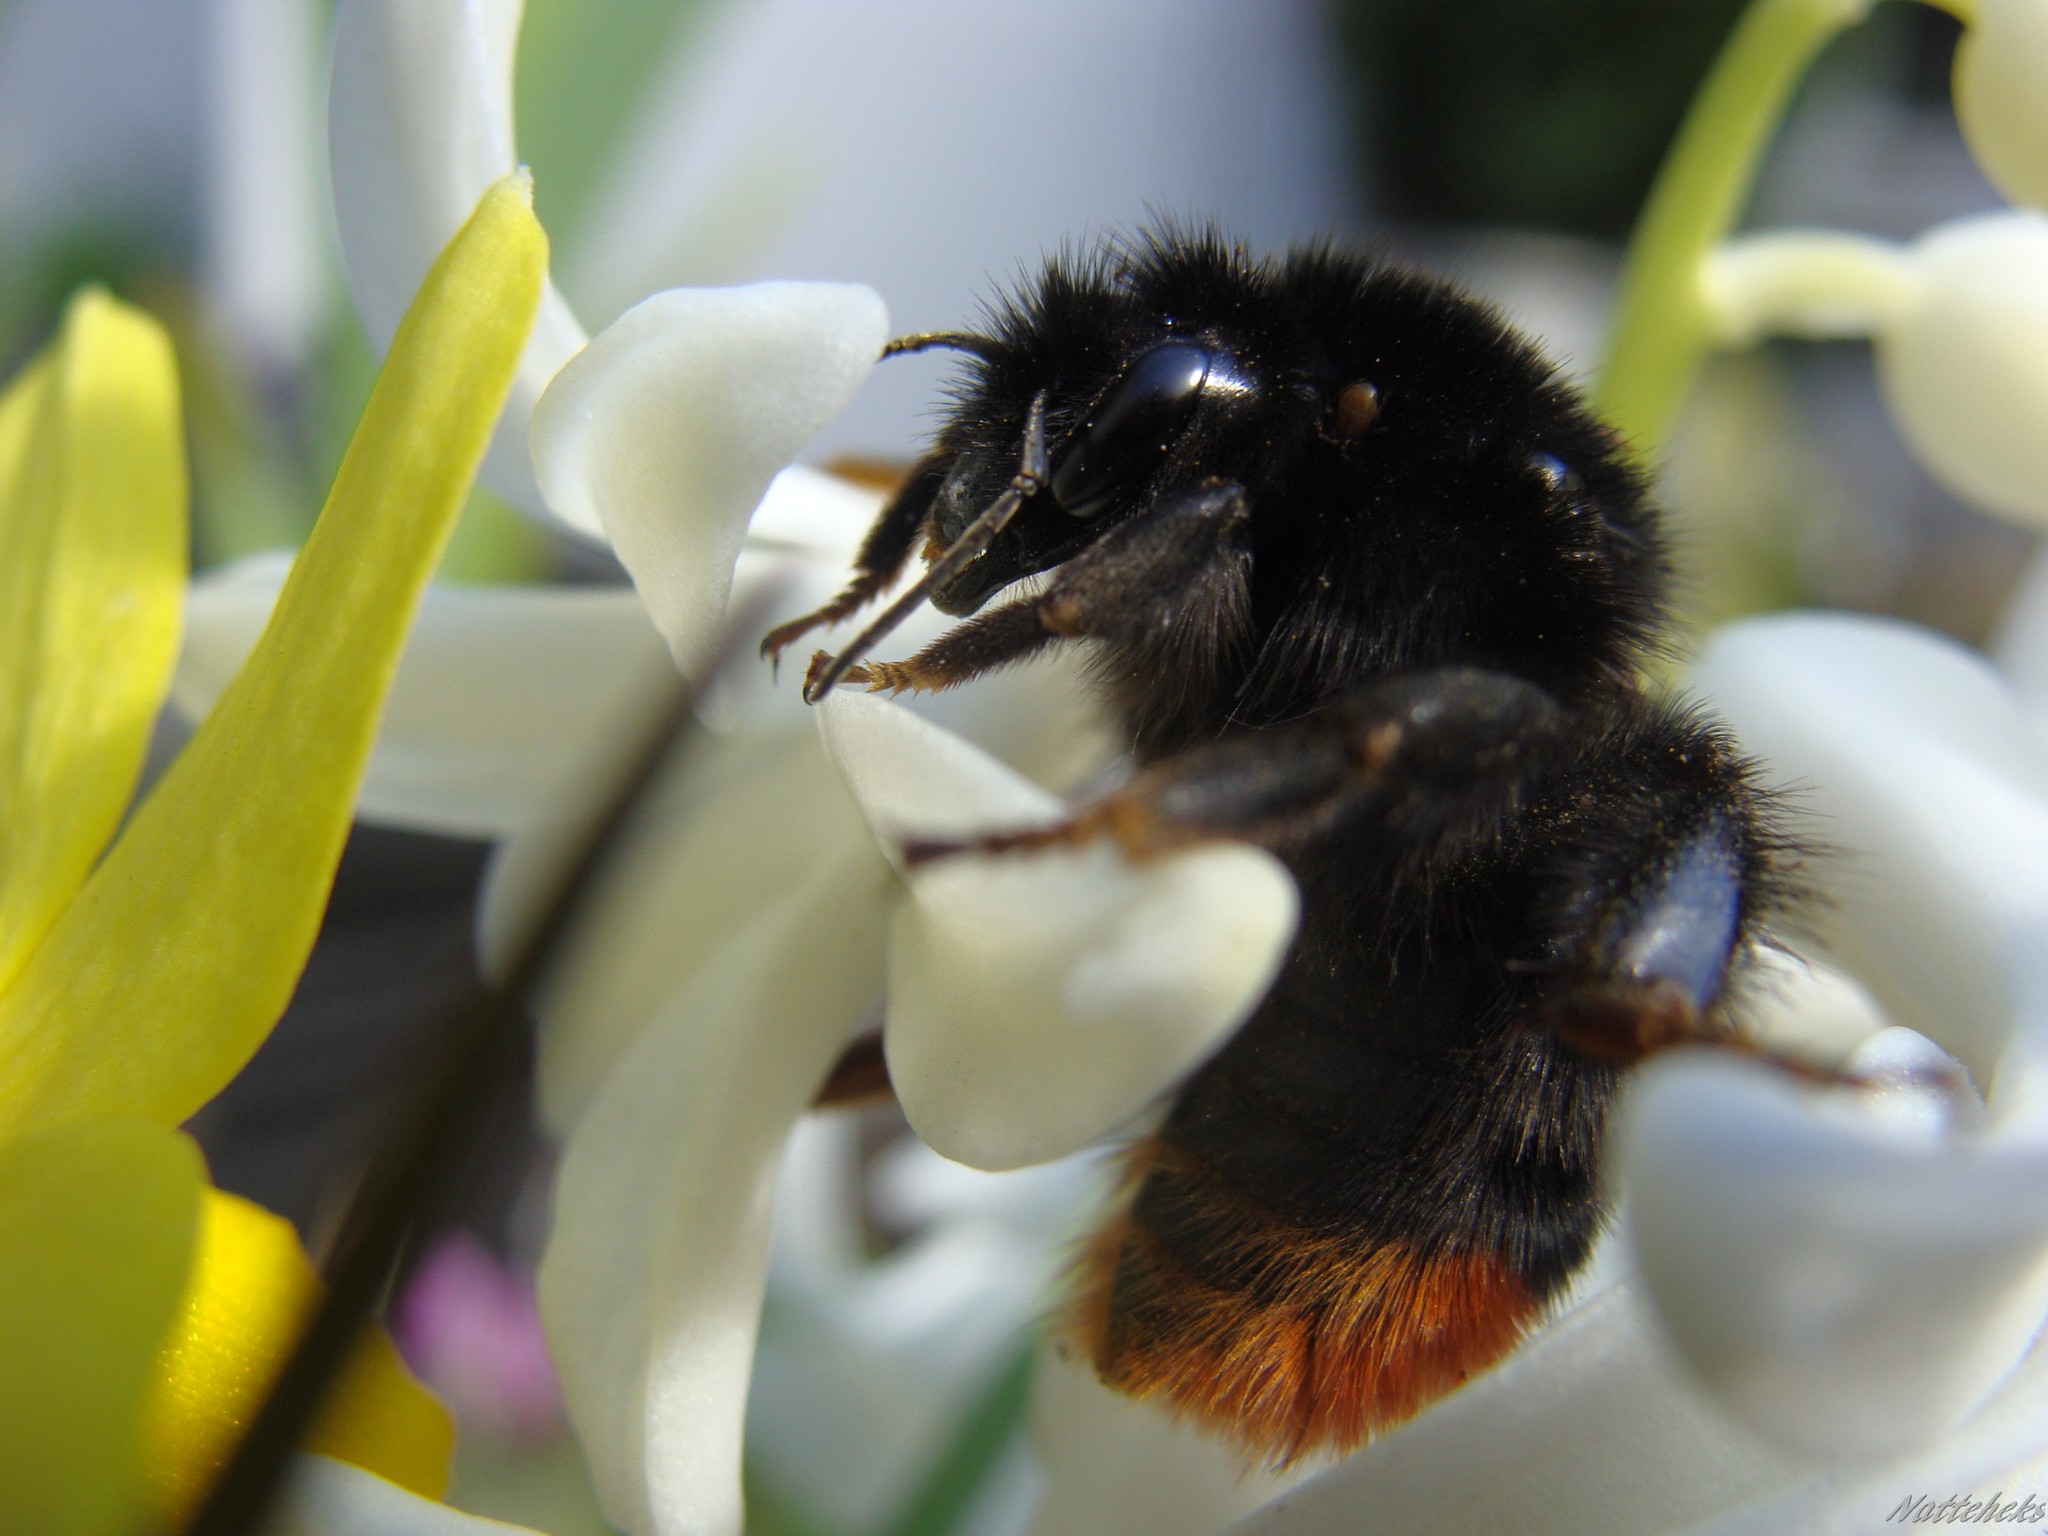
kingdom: Animalia
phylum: Arthropoda
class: Insecta
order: Hymenoptera
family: Apidae
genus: Bombus
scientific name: Bombus lapidarius
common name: Large red-tailed humble-bee
